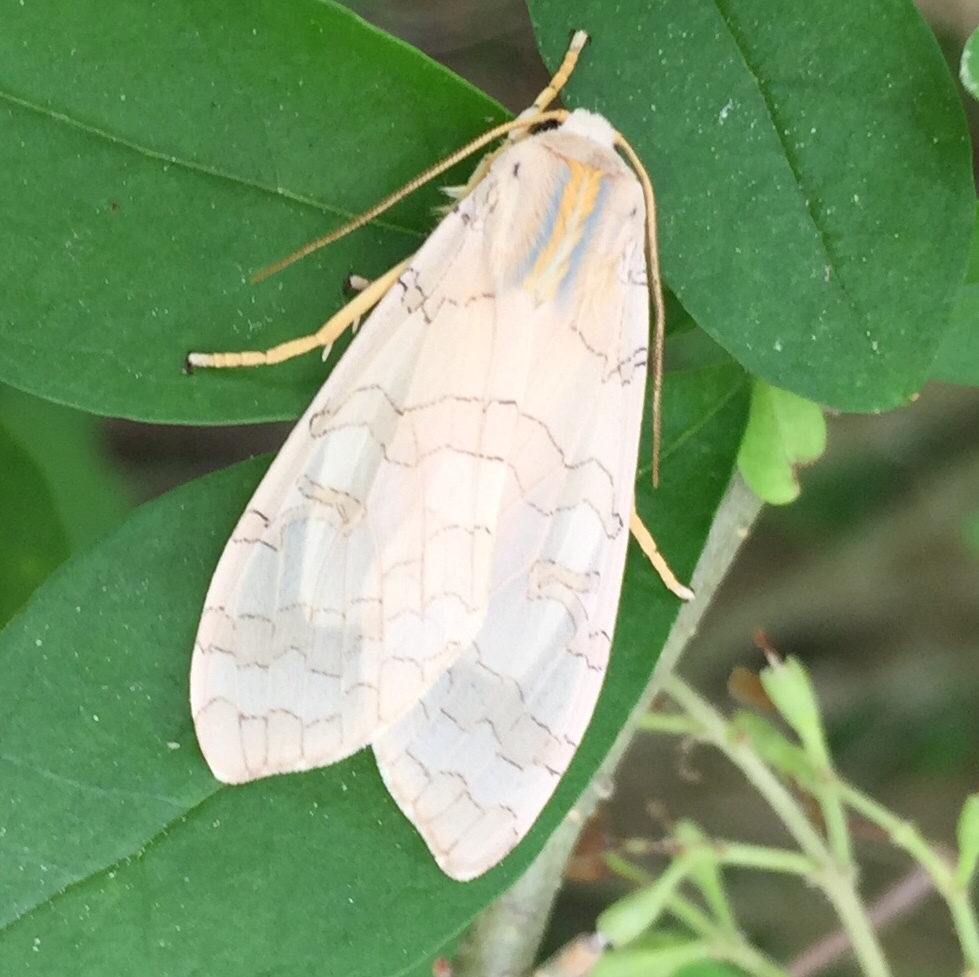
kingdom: Animalia
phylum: Arthropoda
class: Insecta
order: Lepidoptera
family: Erebidae
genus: Halysidota
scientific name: Halysidota tessellaris
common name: Banded tussock moth
